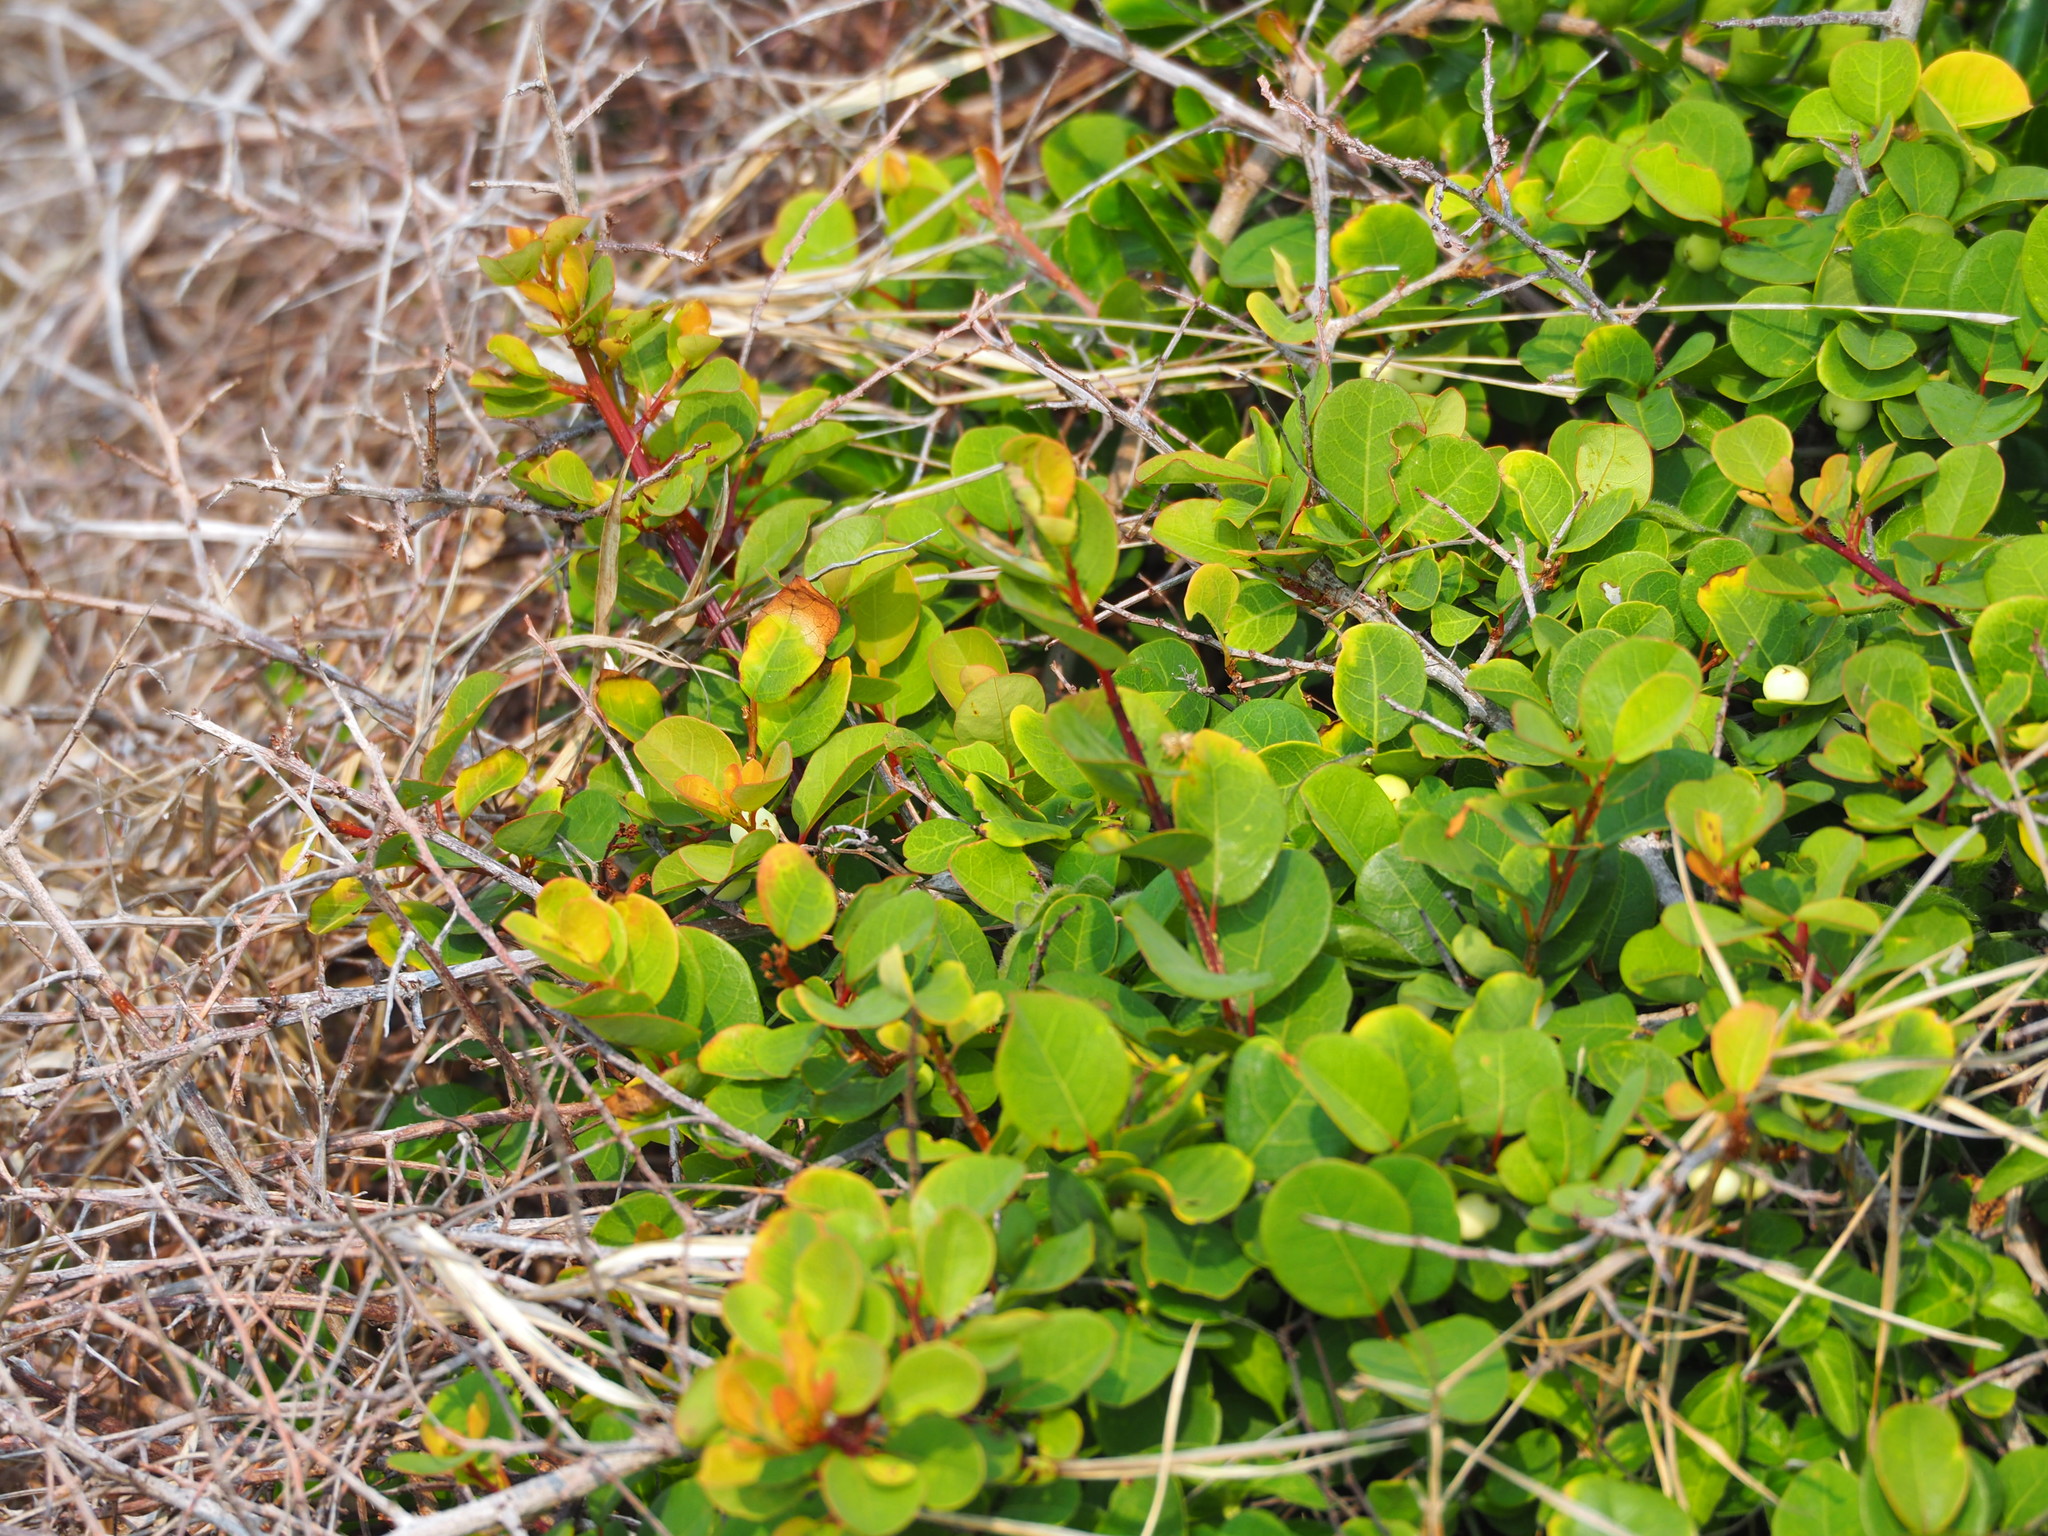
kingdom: Plantae
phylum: Tracheophyta
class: Magnoliopsida
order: Malpighiales
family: Phyllanthaceae
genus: Flueggea
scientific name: Flueggea virosa
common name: Common bushweed
